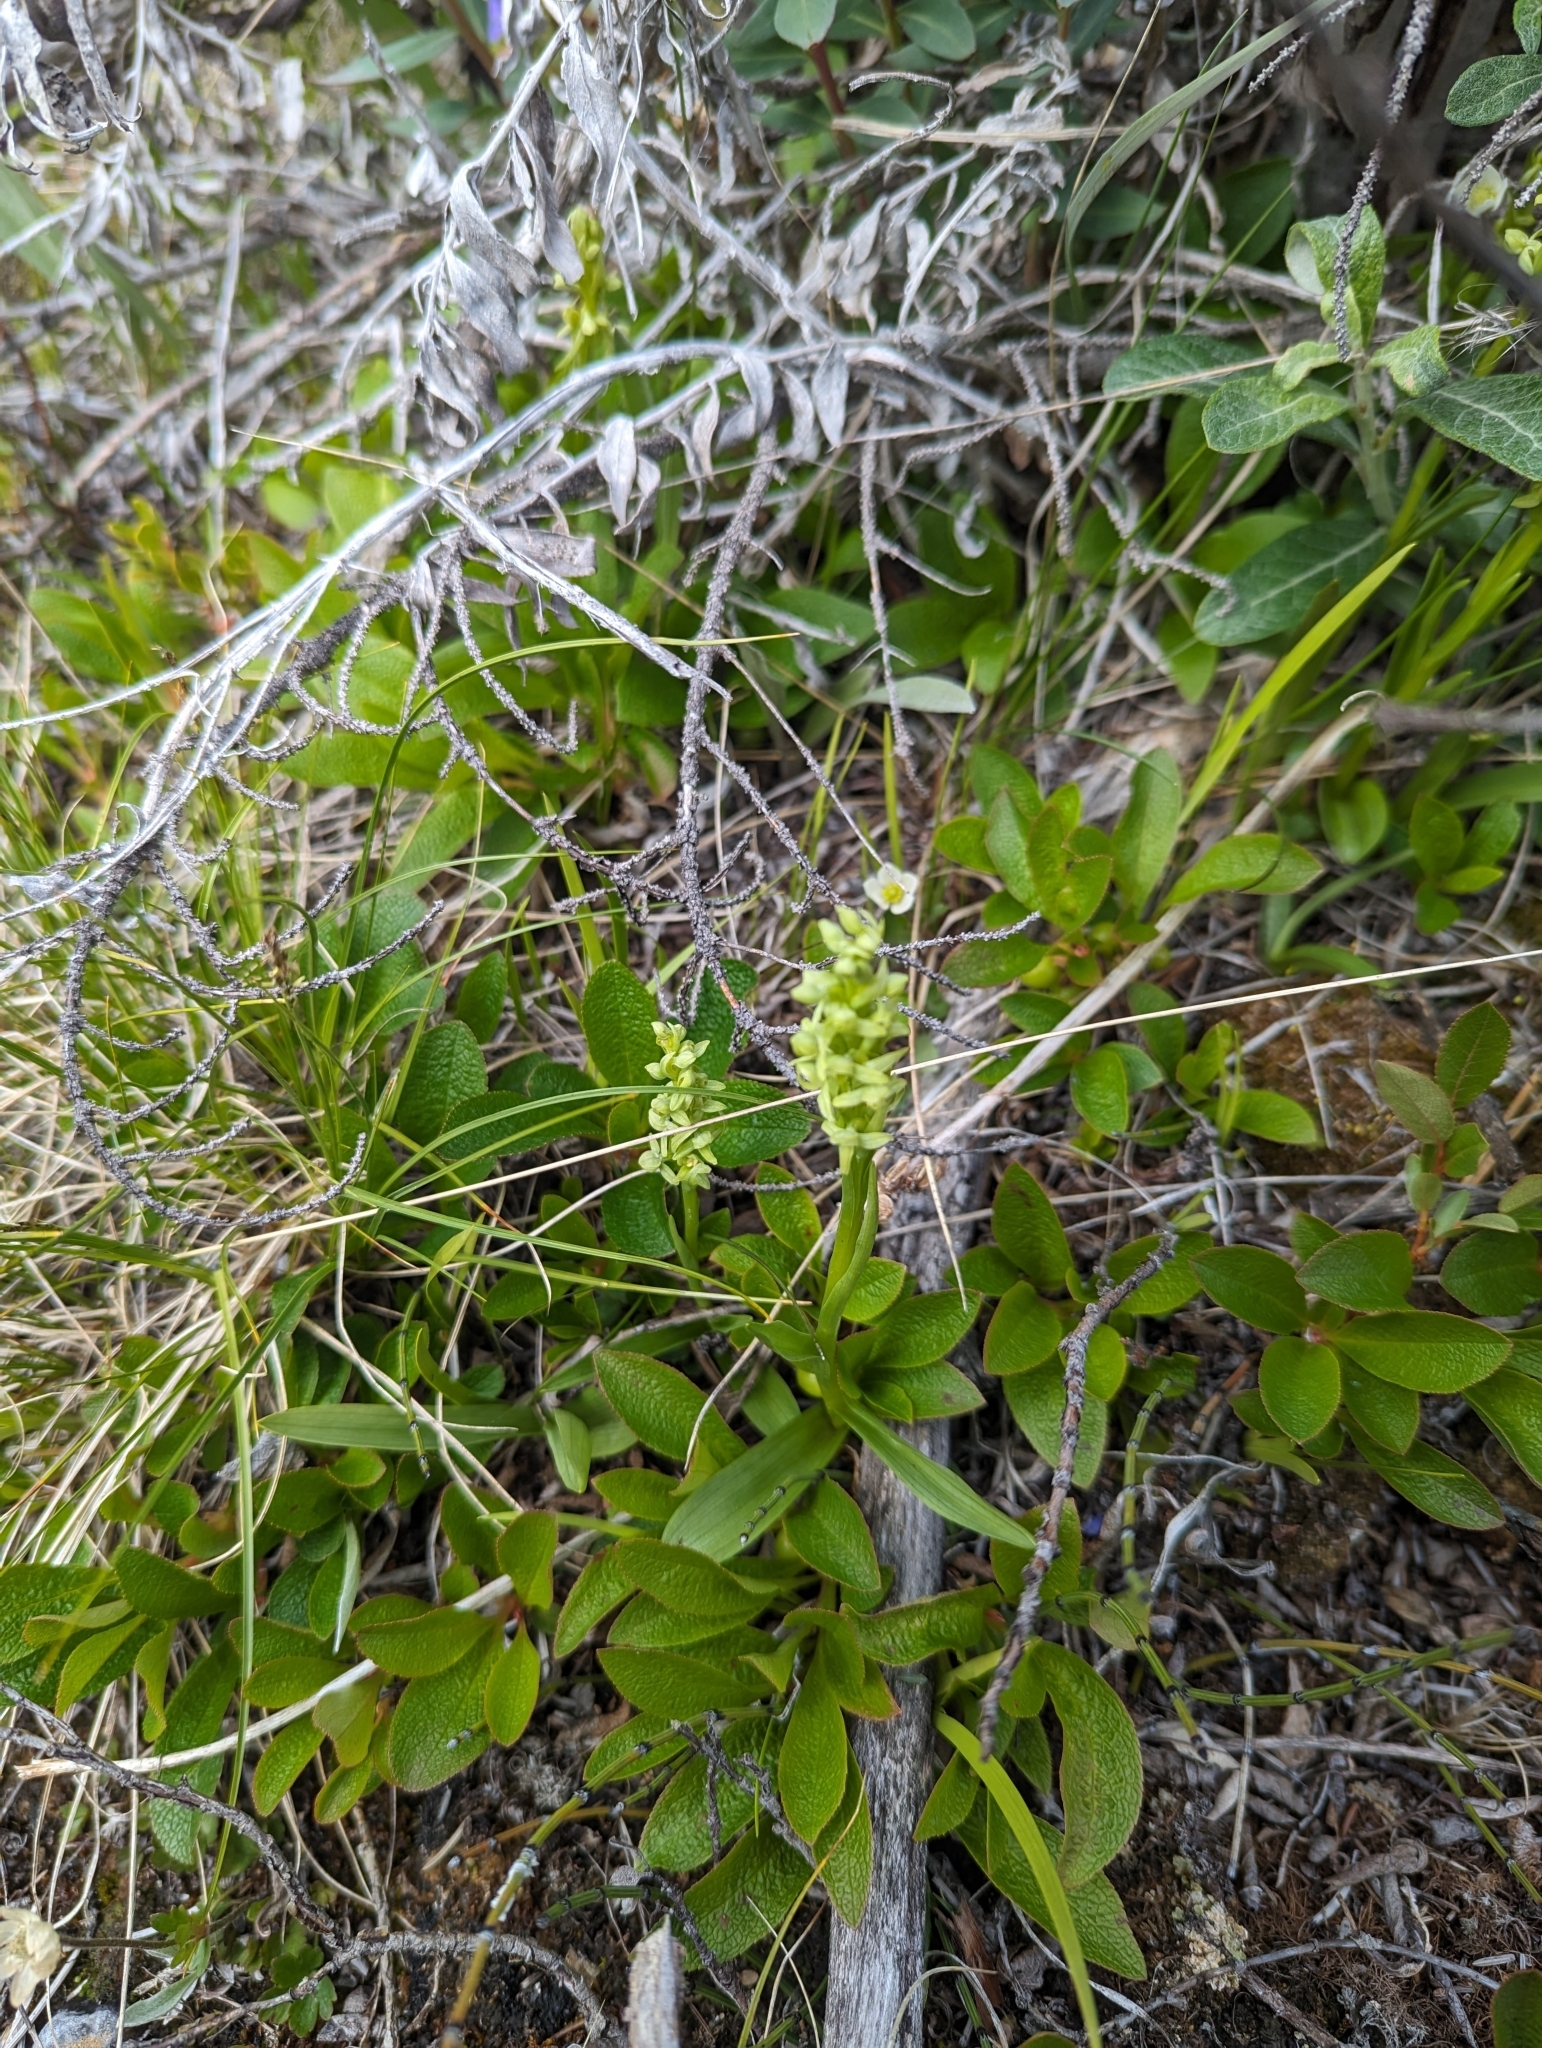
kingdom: Plantae
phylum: Tracheophyta
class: Liliopsida
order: Asparagales
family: Orchidaceae
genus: Platanthera
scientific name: Platanthera huronensis
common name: Fragrant green orchid
